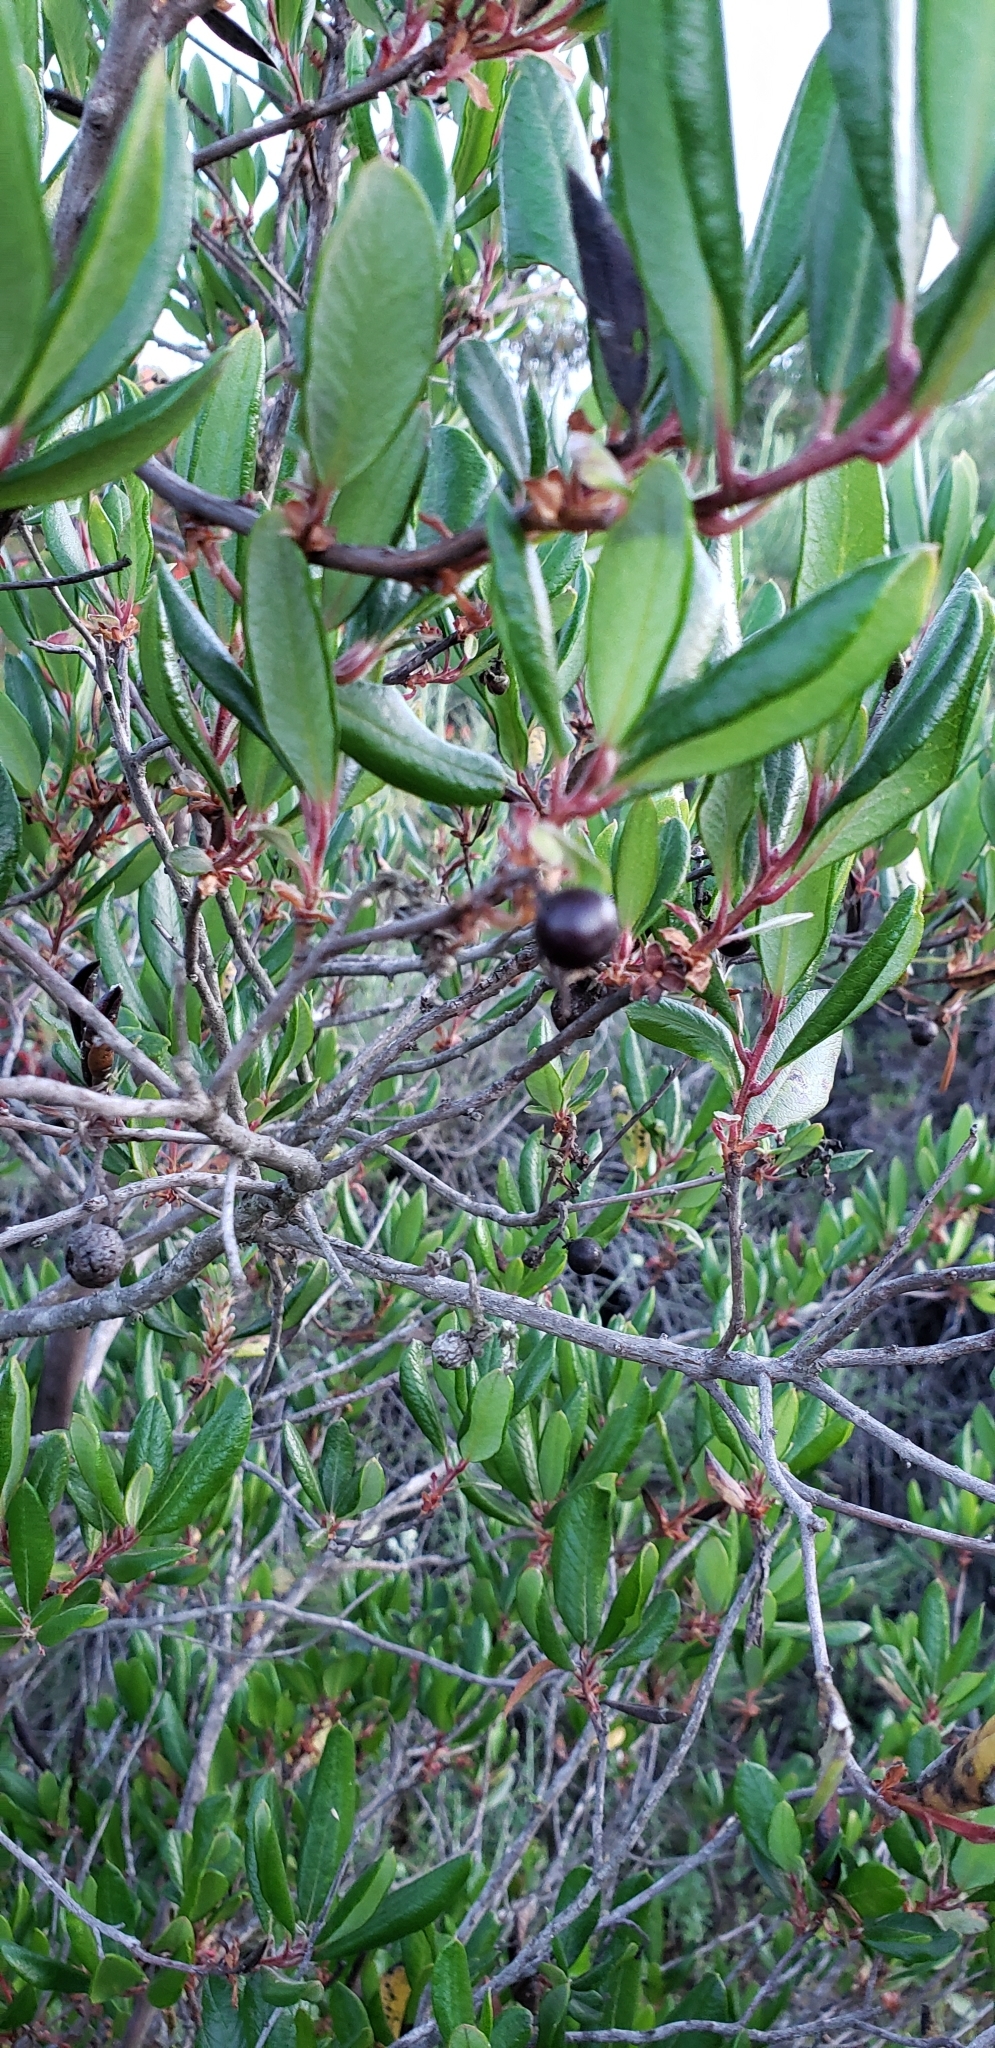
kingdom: Plantae
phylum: Tracheophyta
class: Magnoliopsida
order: Ericales
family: Ericaceae
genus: Arctostaphylos
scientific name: Arctostaphylos bicolor
